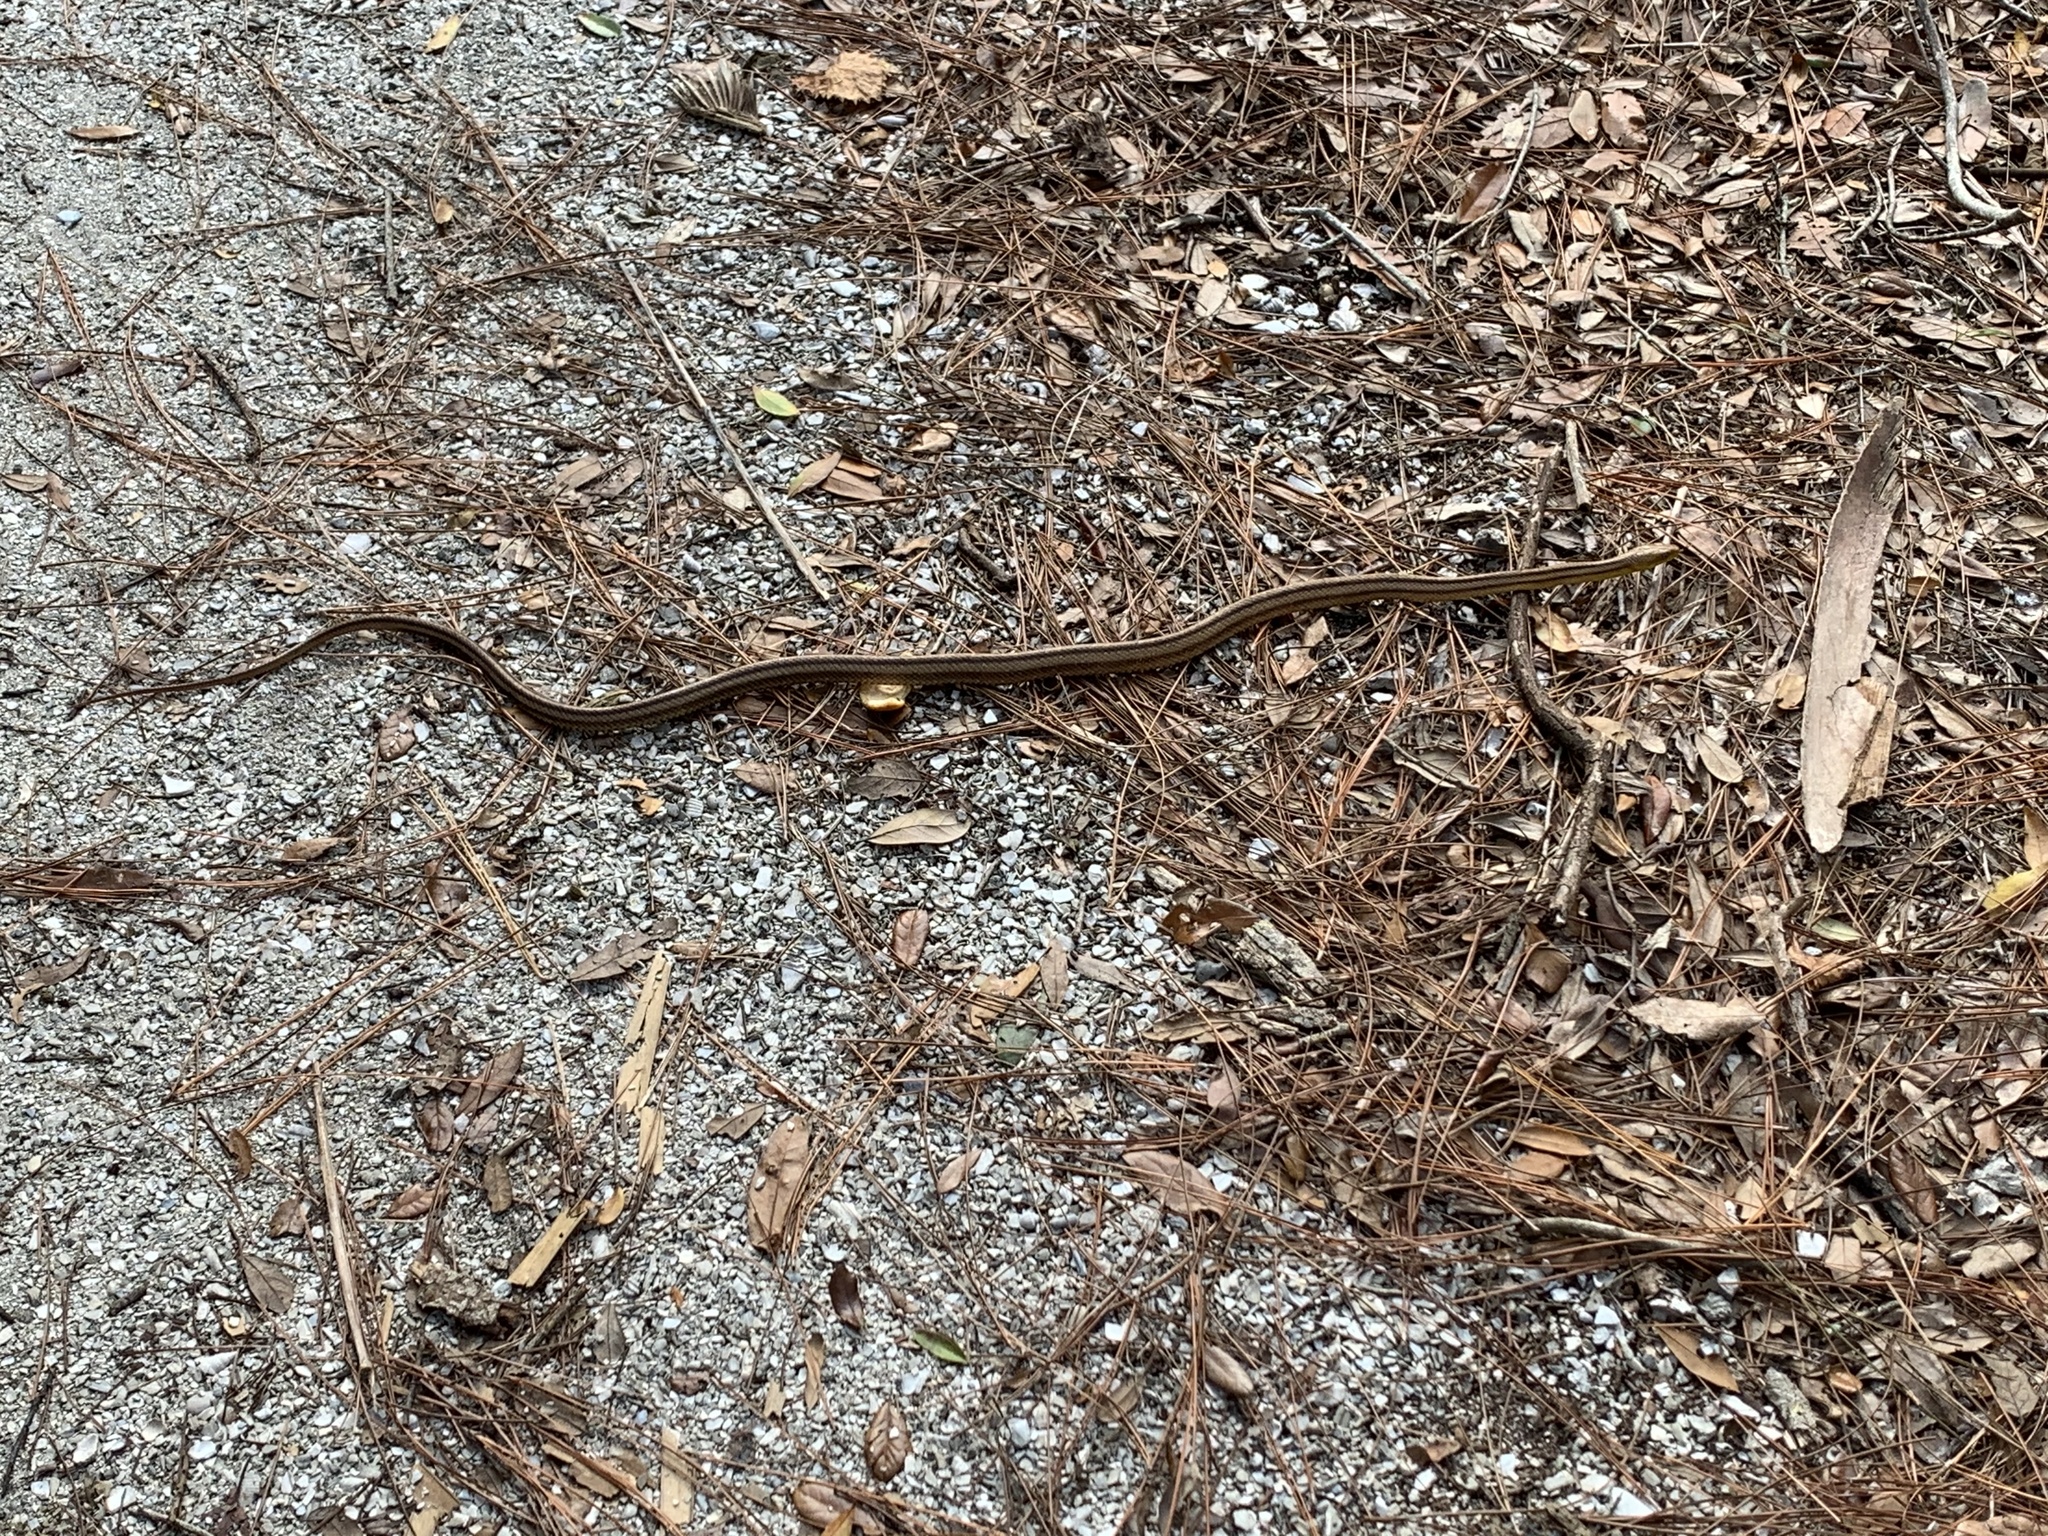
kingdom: Animalia
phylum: Chordata
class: Squamata
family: Colubridae
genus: Pantherophis
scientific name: Pantherophis alleghaniensis
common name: Eastern rat snake
